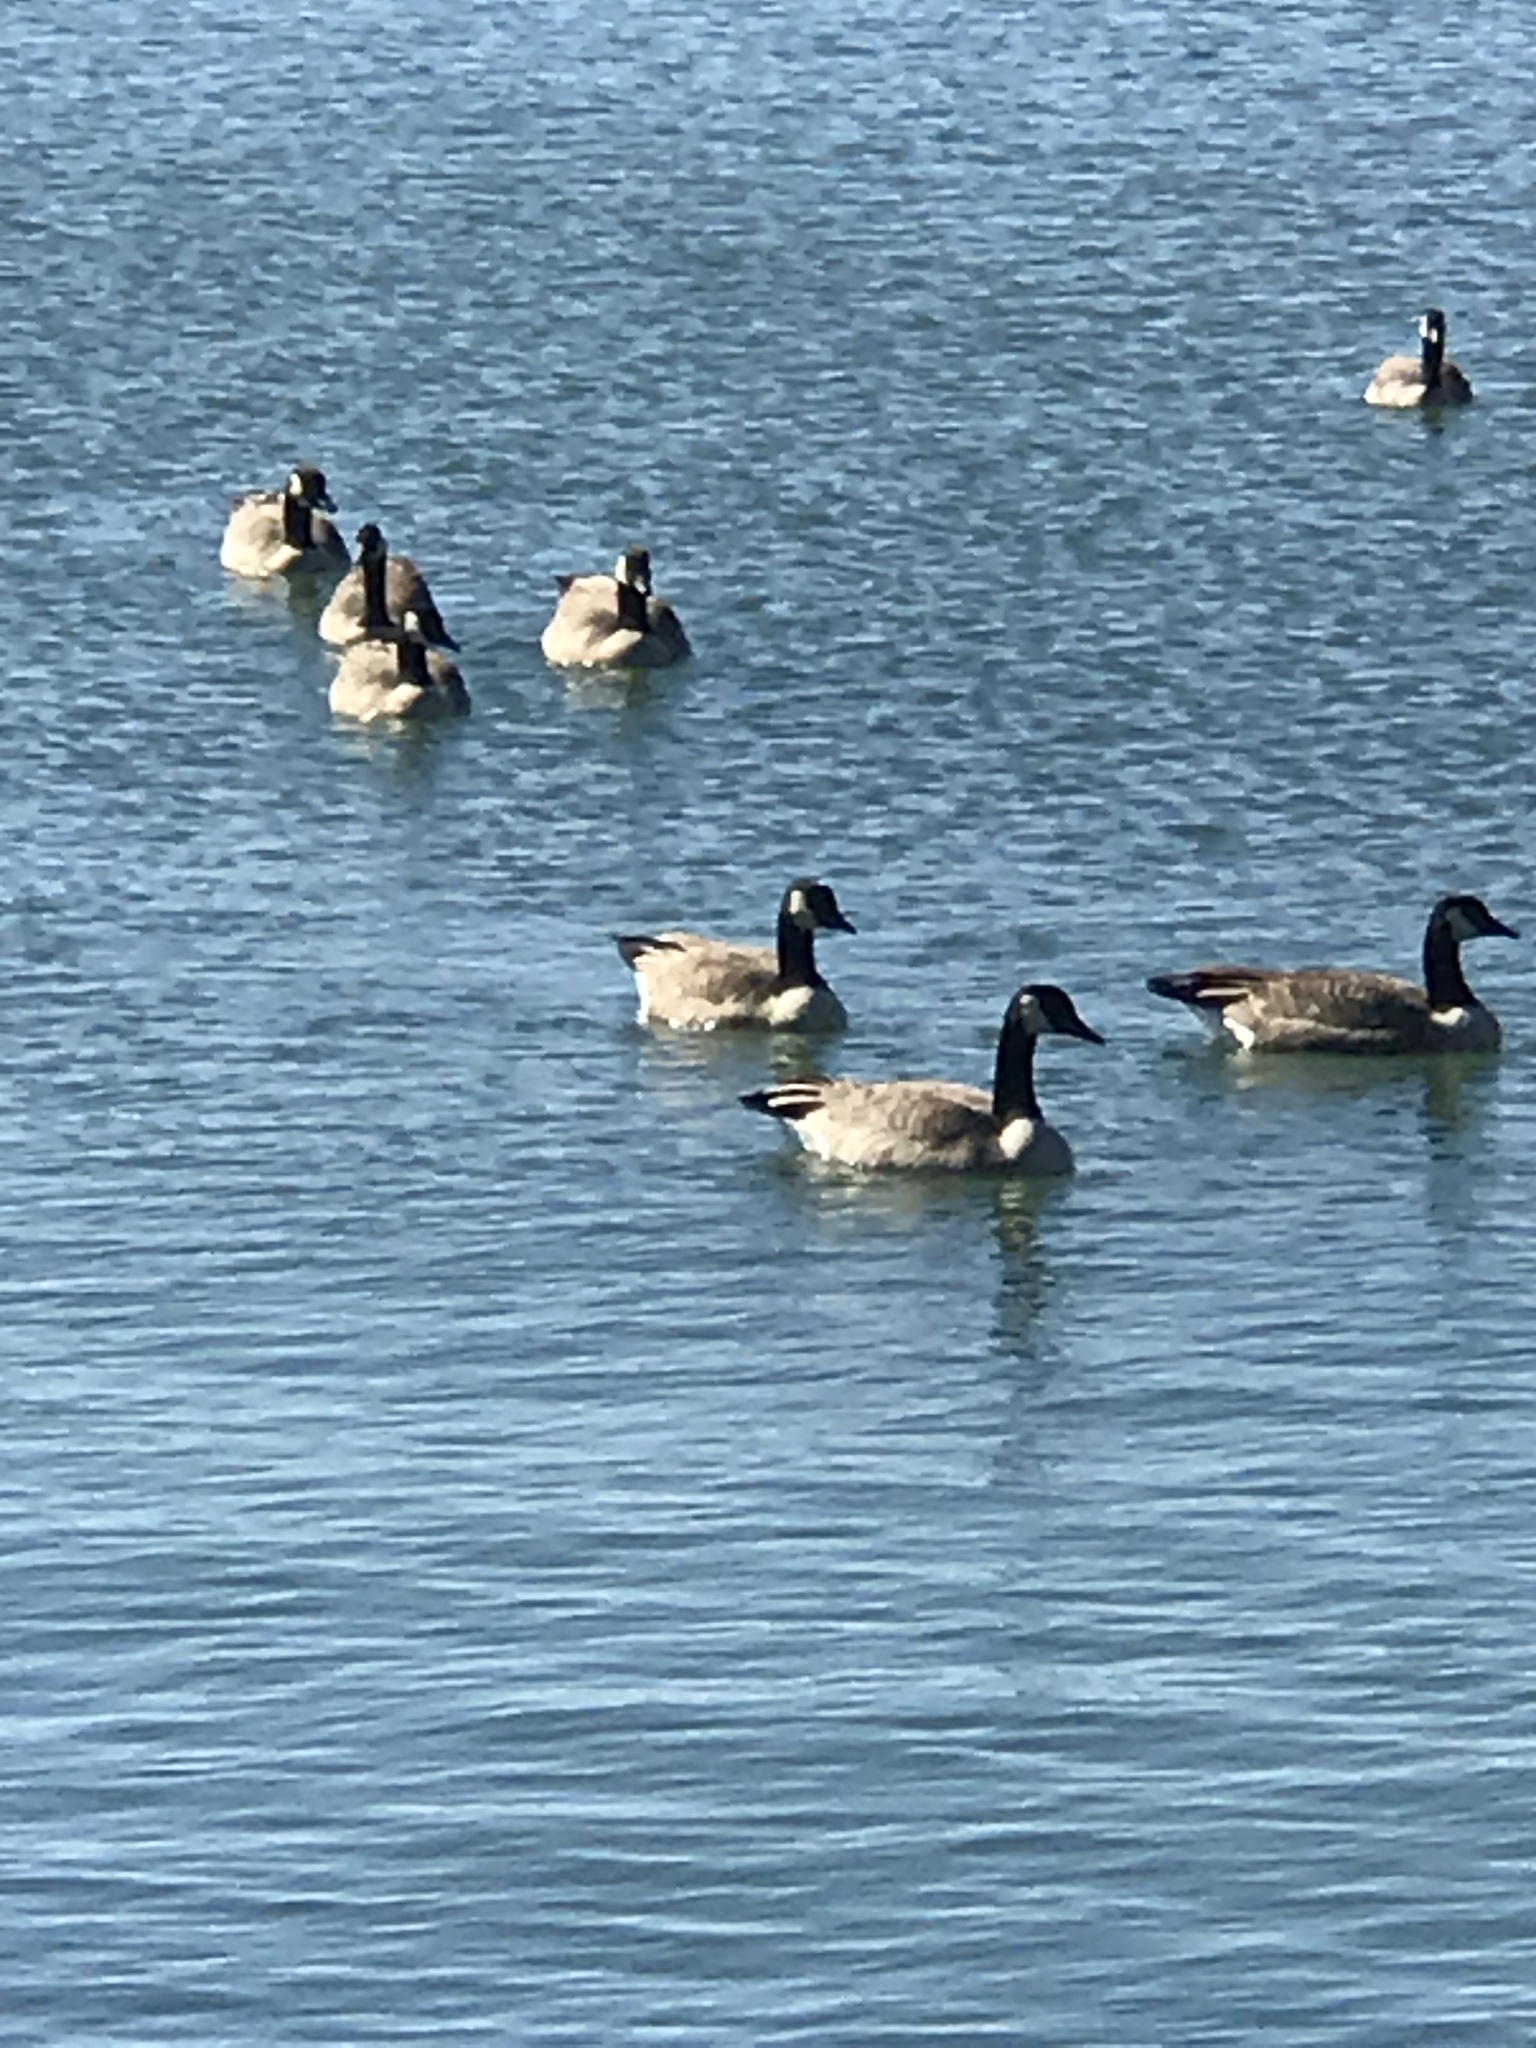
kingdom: Animalia
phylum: Chordata
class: Aves
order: Anseriformes
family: Anatidae
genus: Branta
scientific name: Branta canadensis
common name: Canada goose
